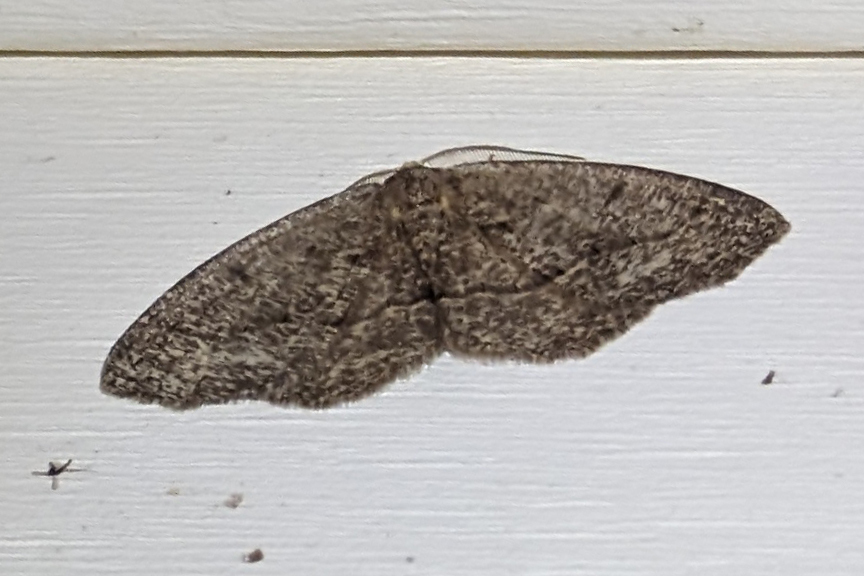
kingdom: Animalia
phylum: Arthropoda
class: Insecta
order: Lepidoptera
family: Geometridae
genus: Lambdina
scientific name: Lambdina fervidaria
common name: Curve-lined looper moth
